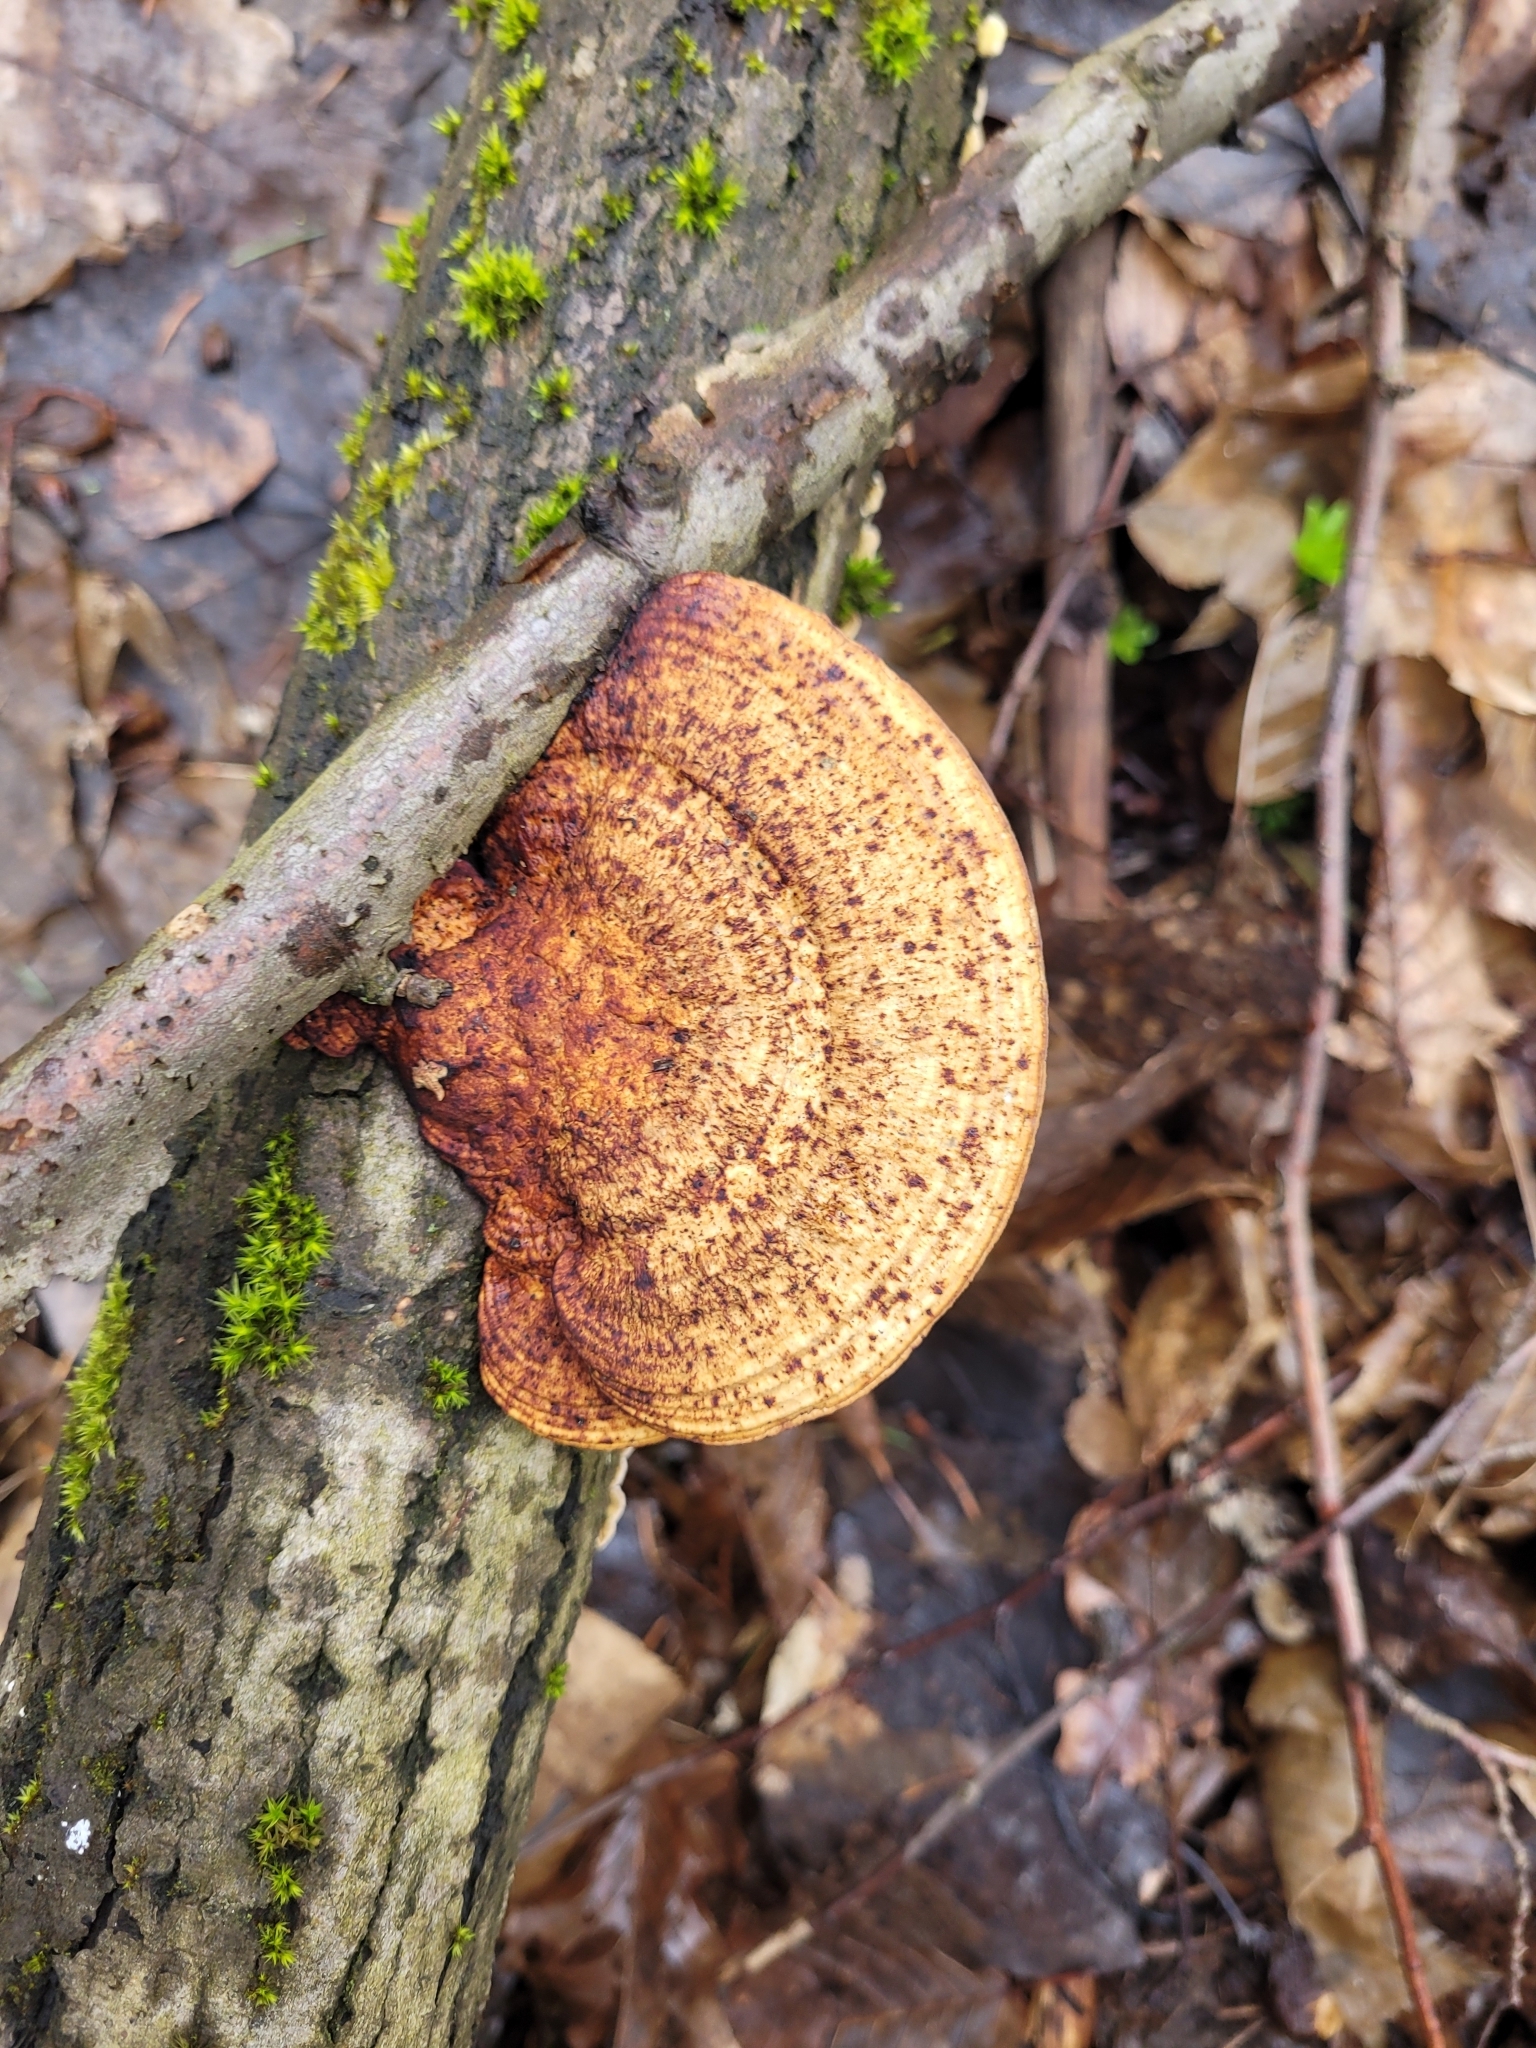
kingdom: Fungi
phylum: Basidiomycota
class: Agaricomycetes
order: Polyporales
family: Polyporaceae
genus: Daedaleopsis
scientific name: Daedaleopsis confragosa
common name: Blushing bracket
